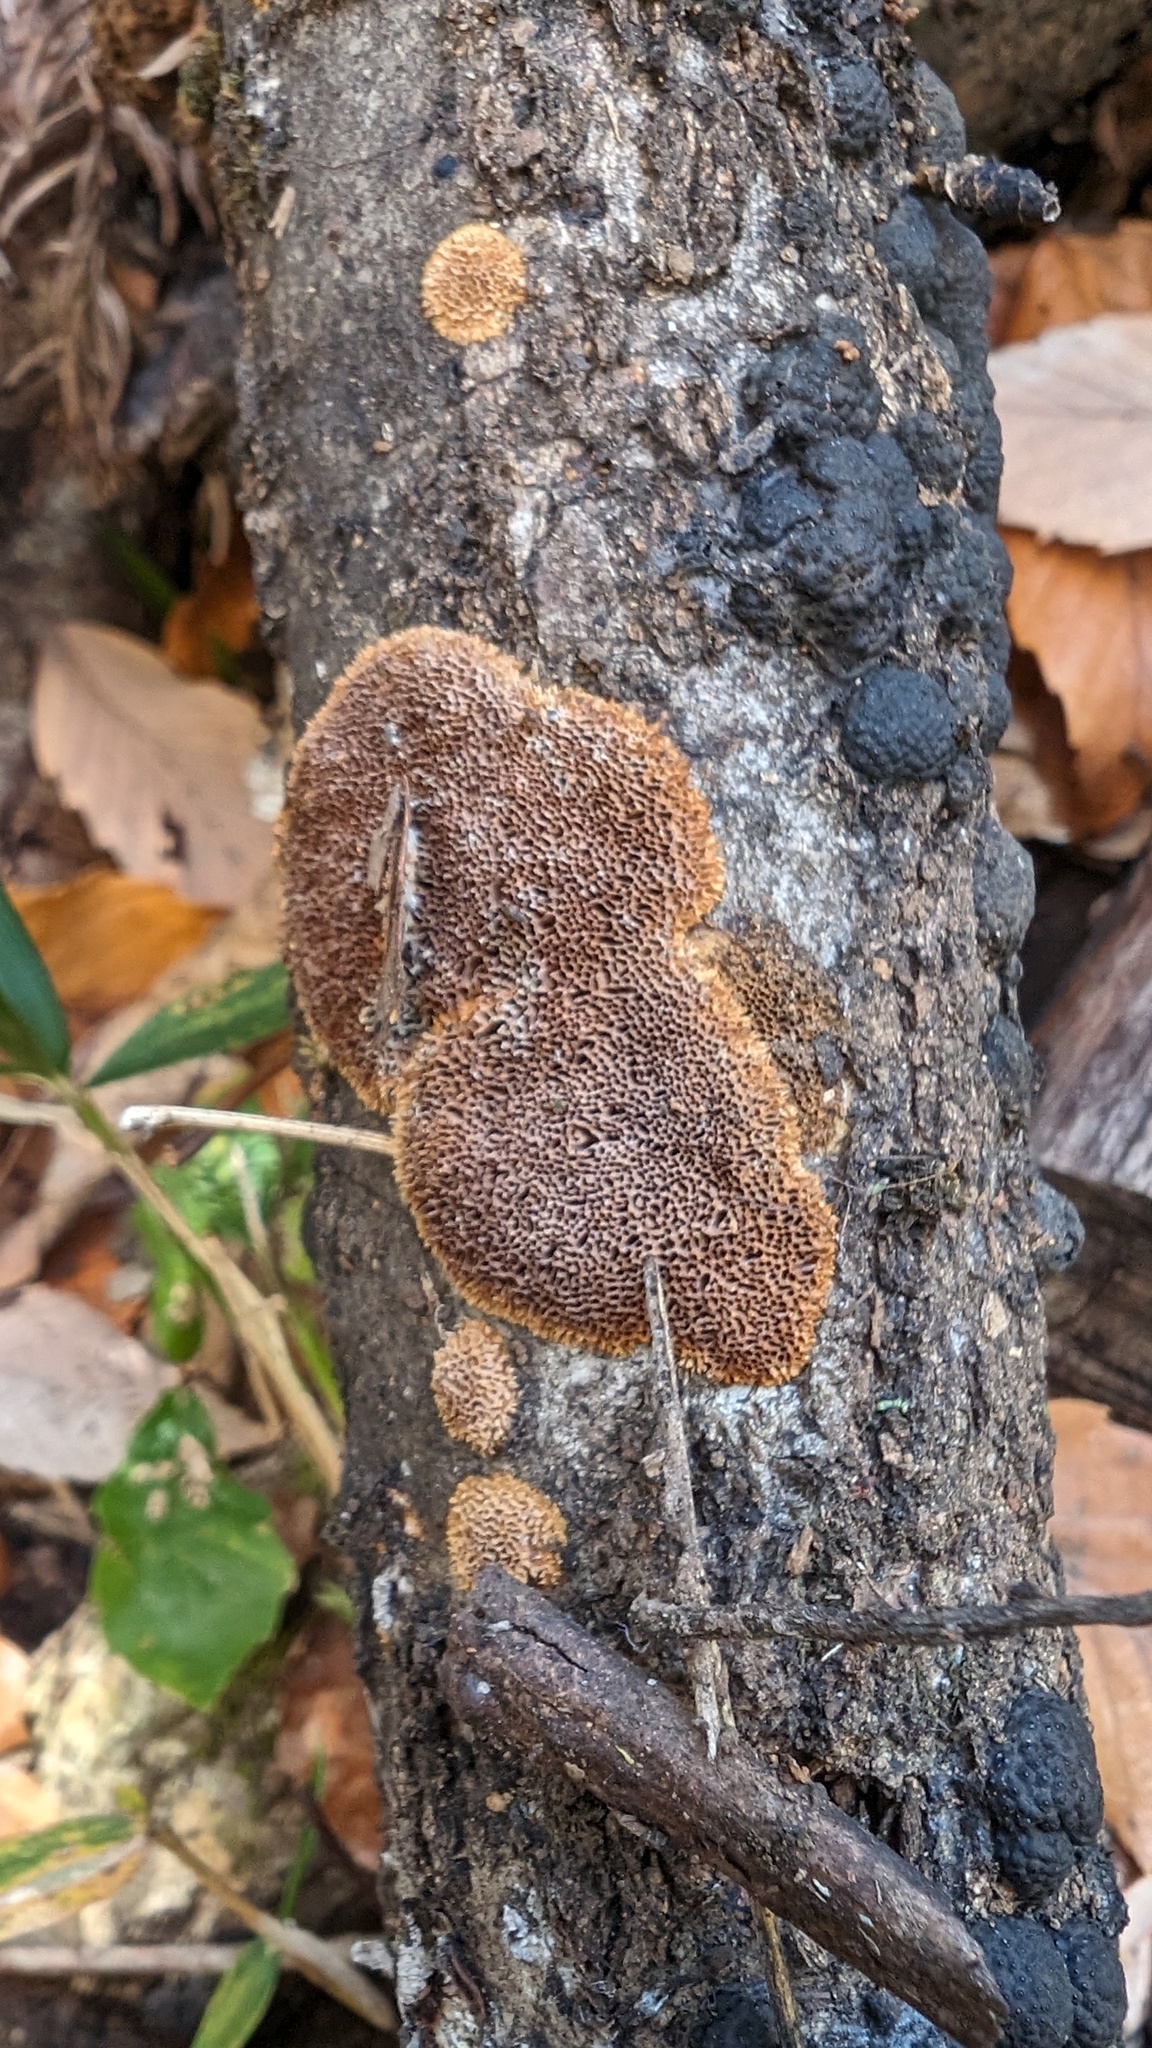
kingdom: Fungi
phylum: Basidiomycota
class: Agaricomycetes
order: Hymenochaetales
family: Hymenochaetaceae
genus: Fuscoporia
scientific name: Fuscoporia setifera
